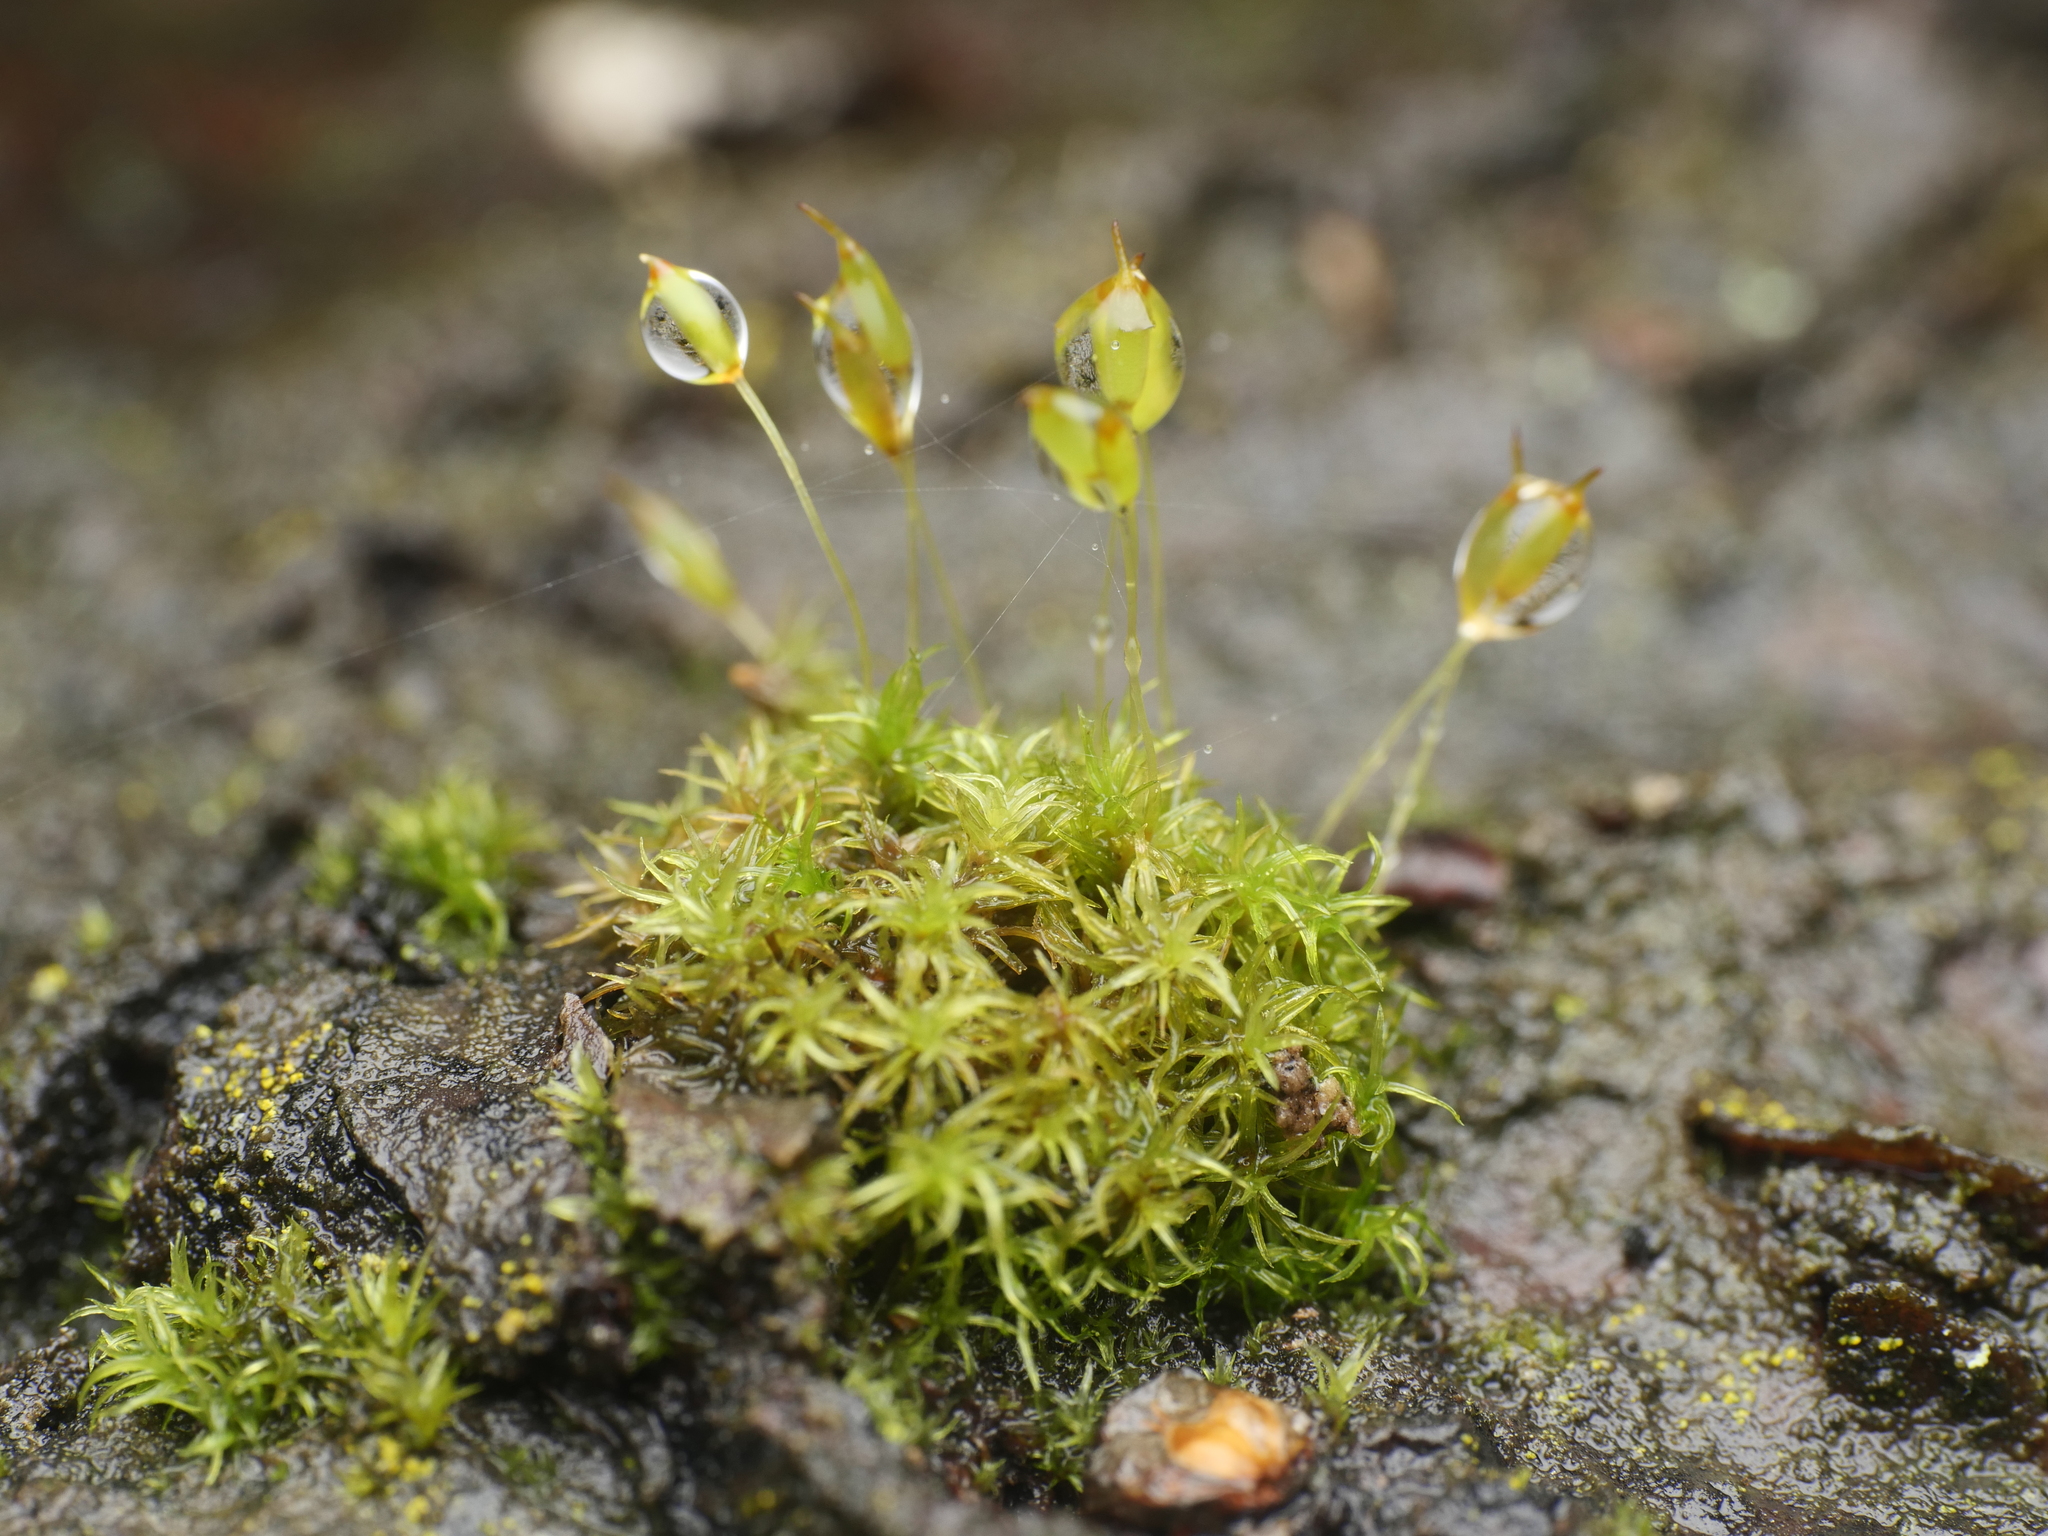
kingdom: Plantae
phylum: Bryophyta
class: Bryopsida
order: Dicranales
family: Rhabdoweisiaceae
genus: Dicranoweisia
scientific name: Dicranoweisia cirrata
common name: Common pincushion
